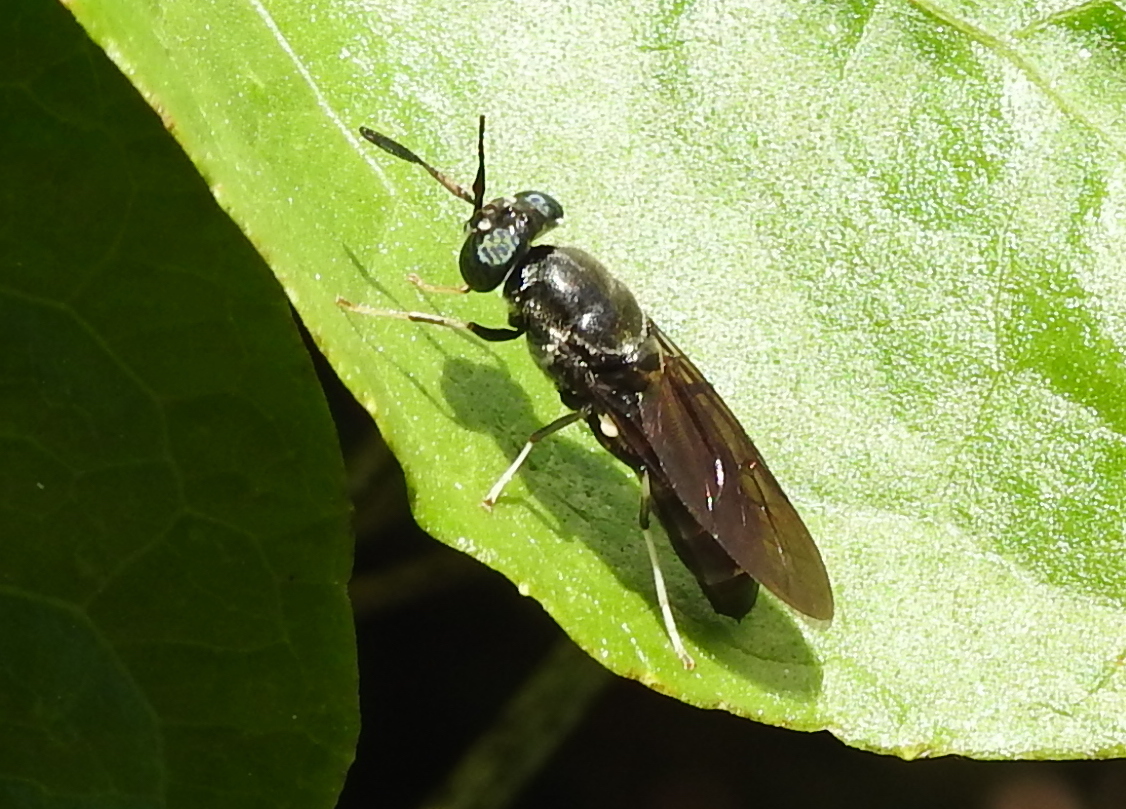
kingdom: Animalia
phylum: Arthropoda
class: Insecta
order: Diptera
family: Stratiomyidae
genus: Hermetia
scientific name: Hermetia illucens
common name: Black soldier fly
